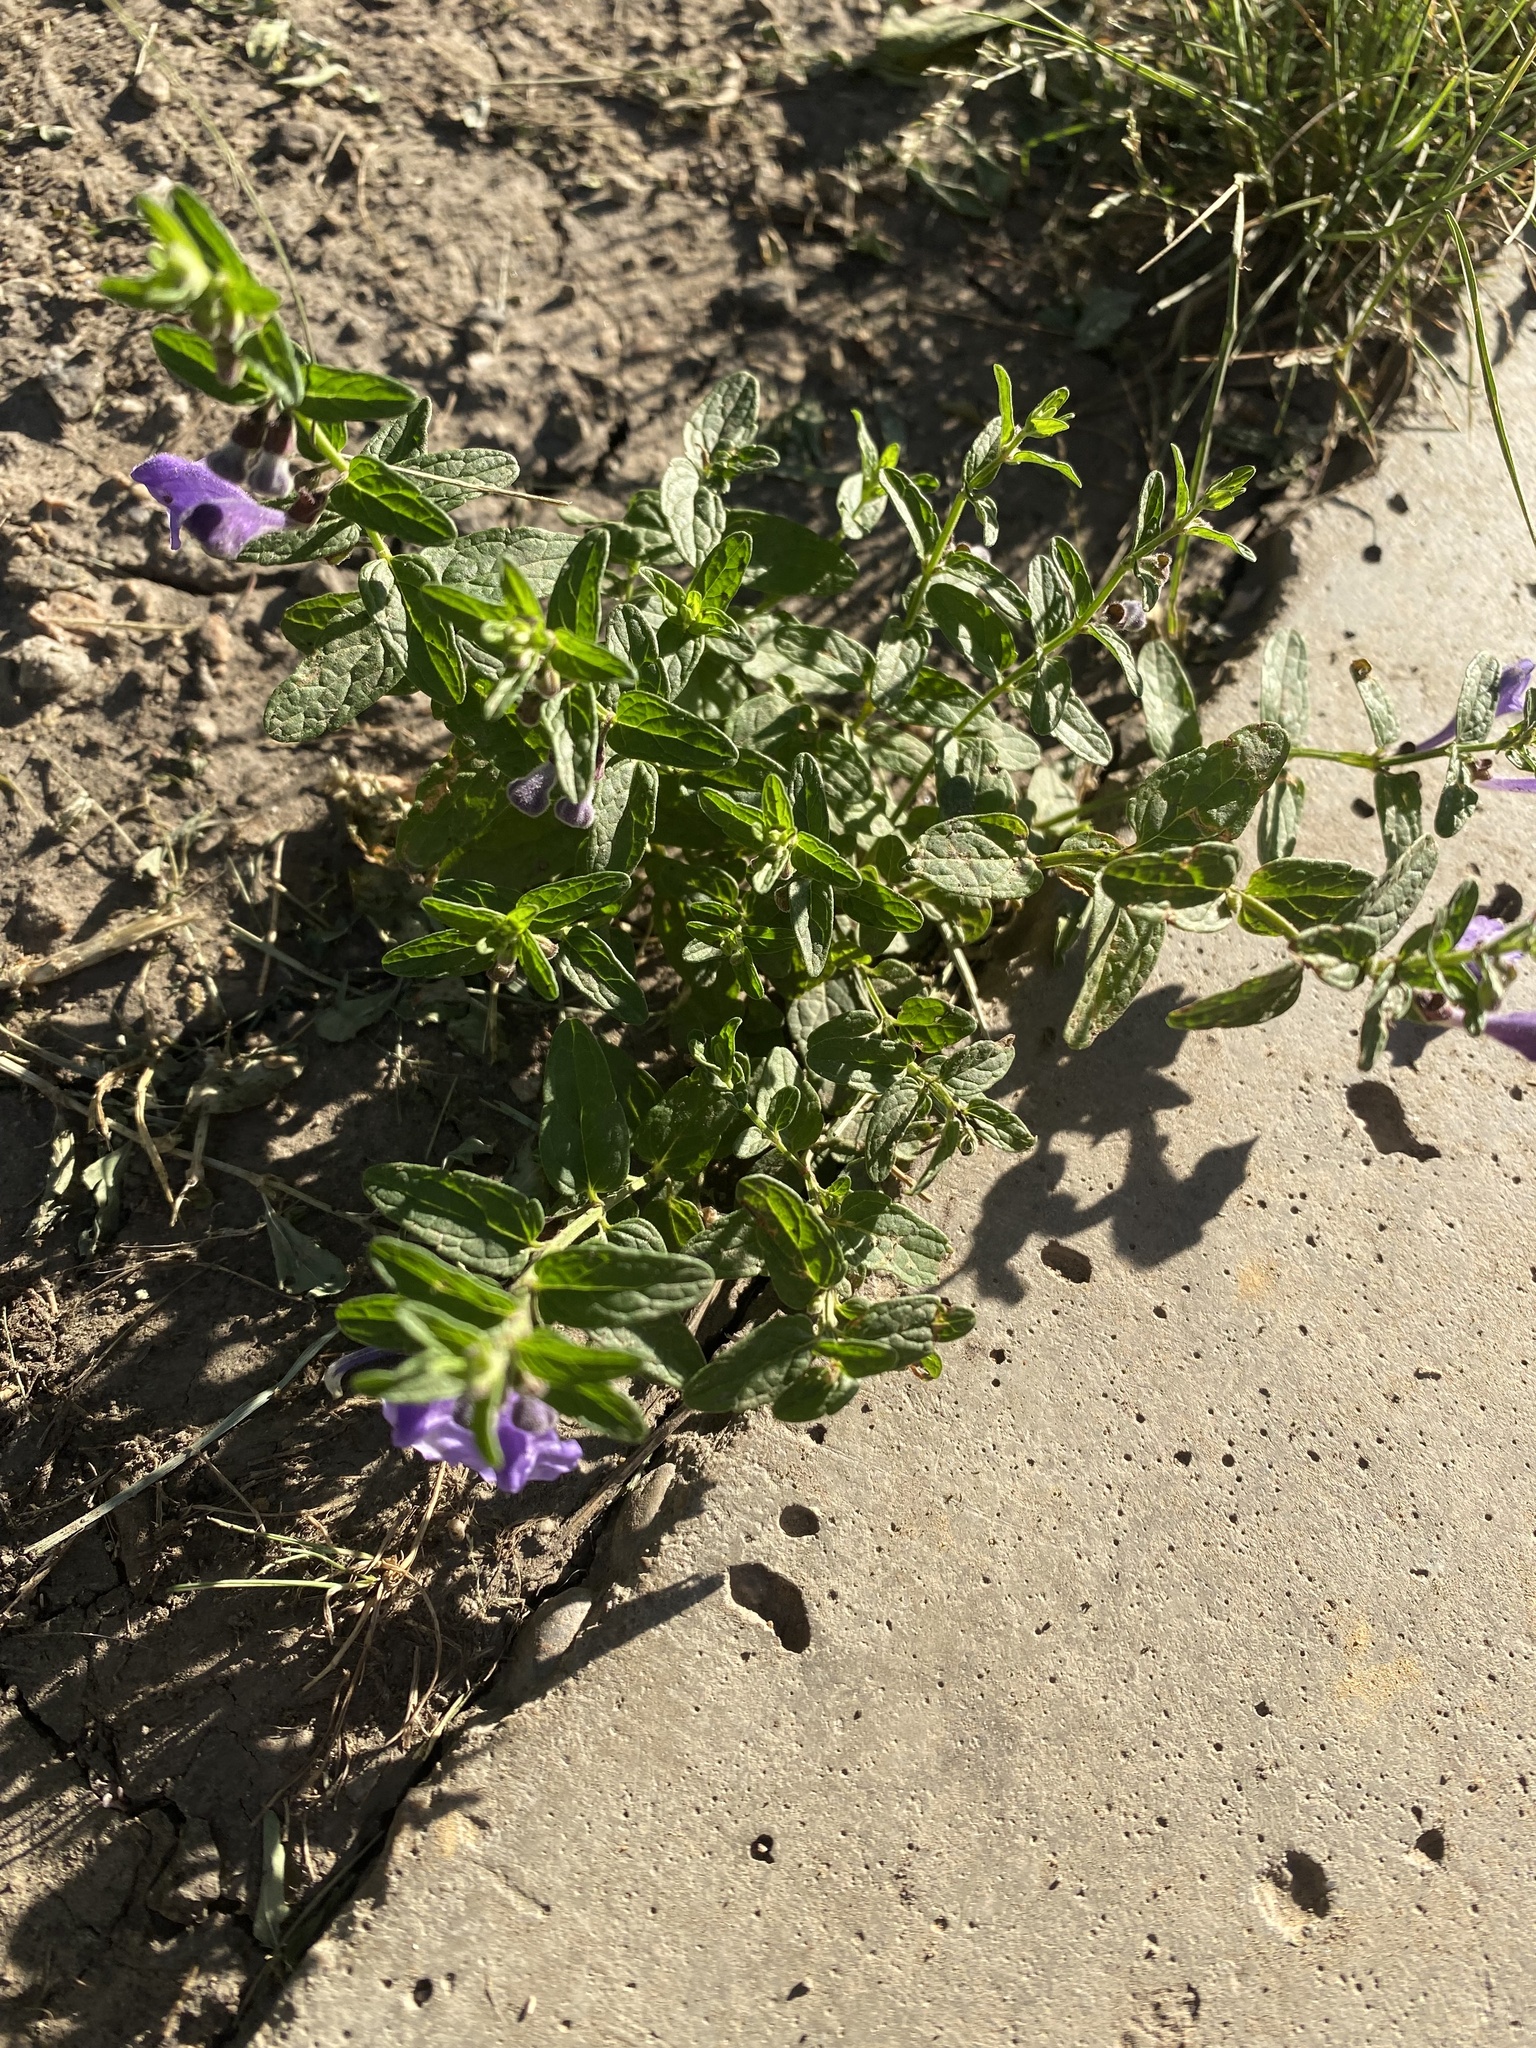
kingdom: Plantae
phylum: Tracheophyta
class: Magnoliopsida
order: Lamiales
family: Lamiaceae
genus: Scutellaria
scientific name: Scutellaria scordiifolia
